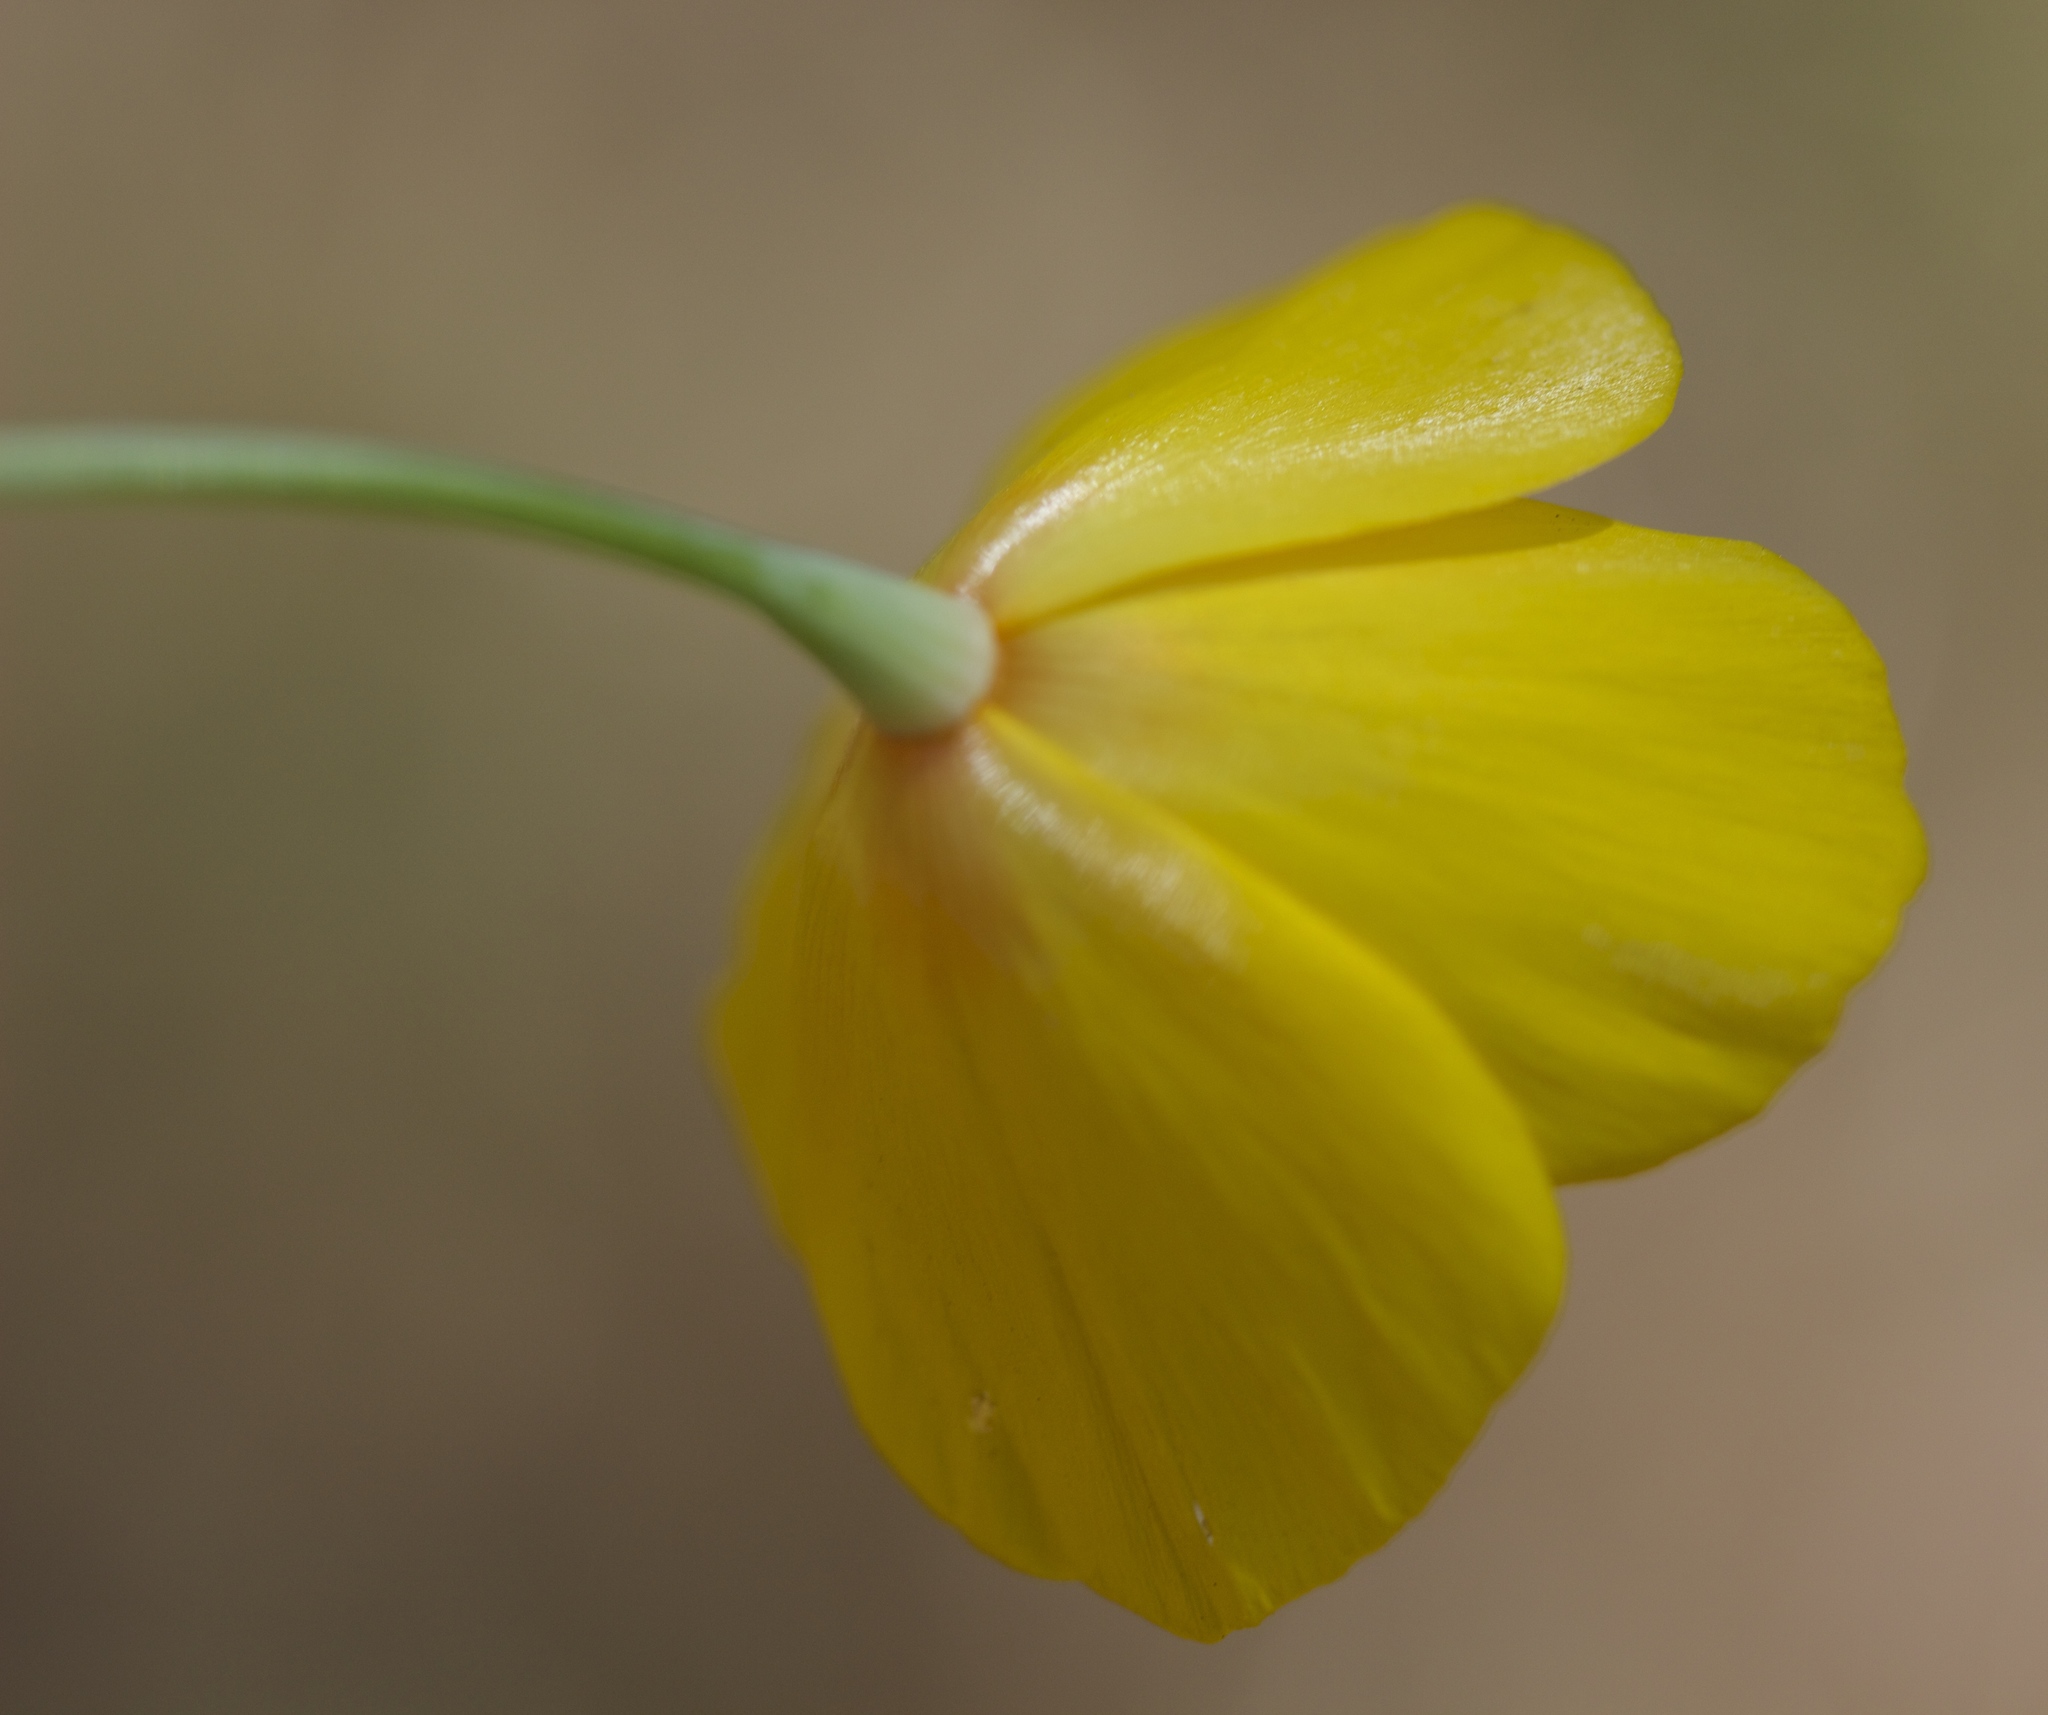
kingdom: Plantae
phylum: Tracheophyta
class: Magnoliopsida
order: Ranunculales
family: Papaveraceae
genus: Eschscholzia
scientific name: Eschscholzia caespitosa
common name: Tufted california-poppy
